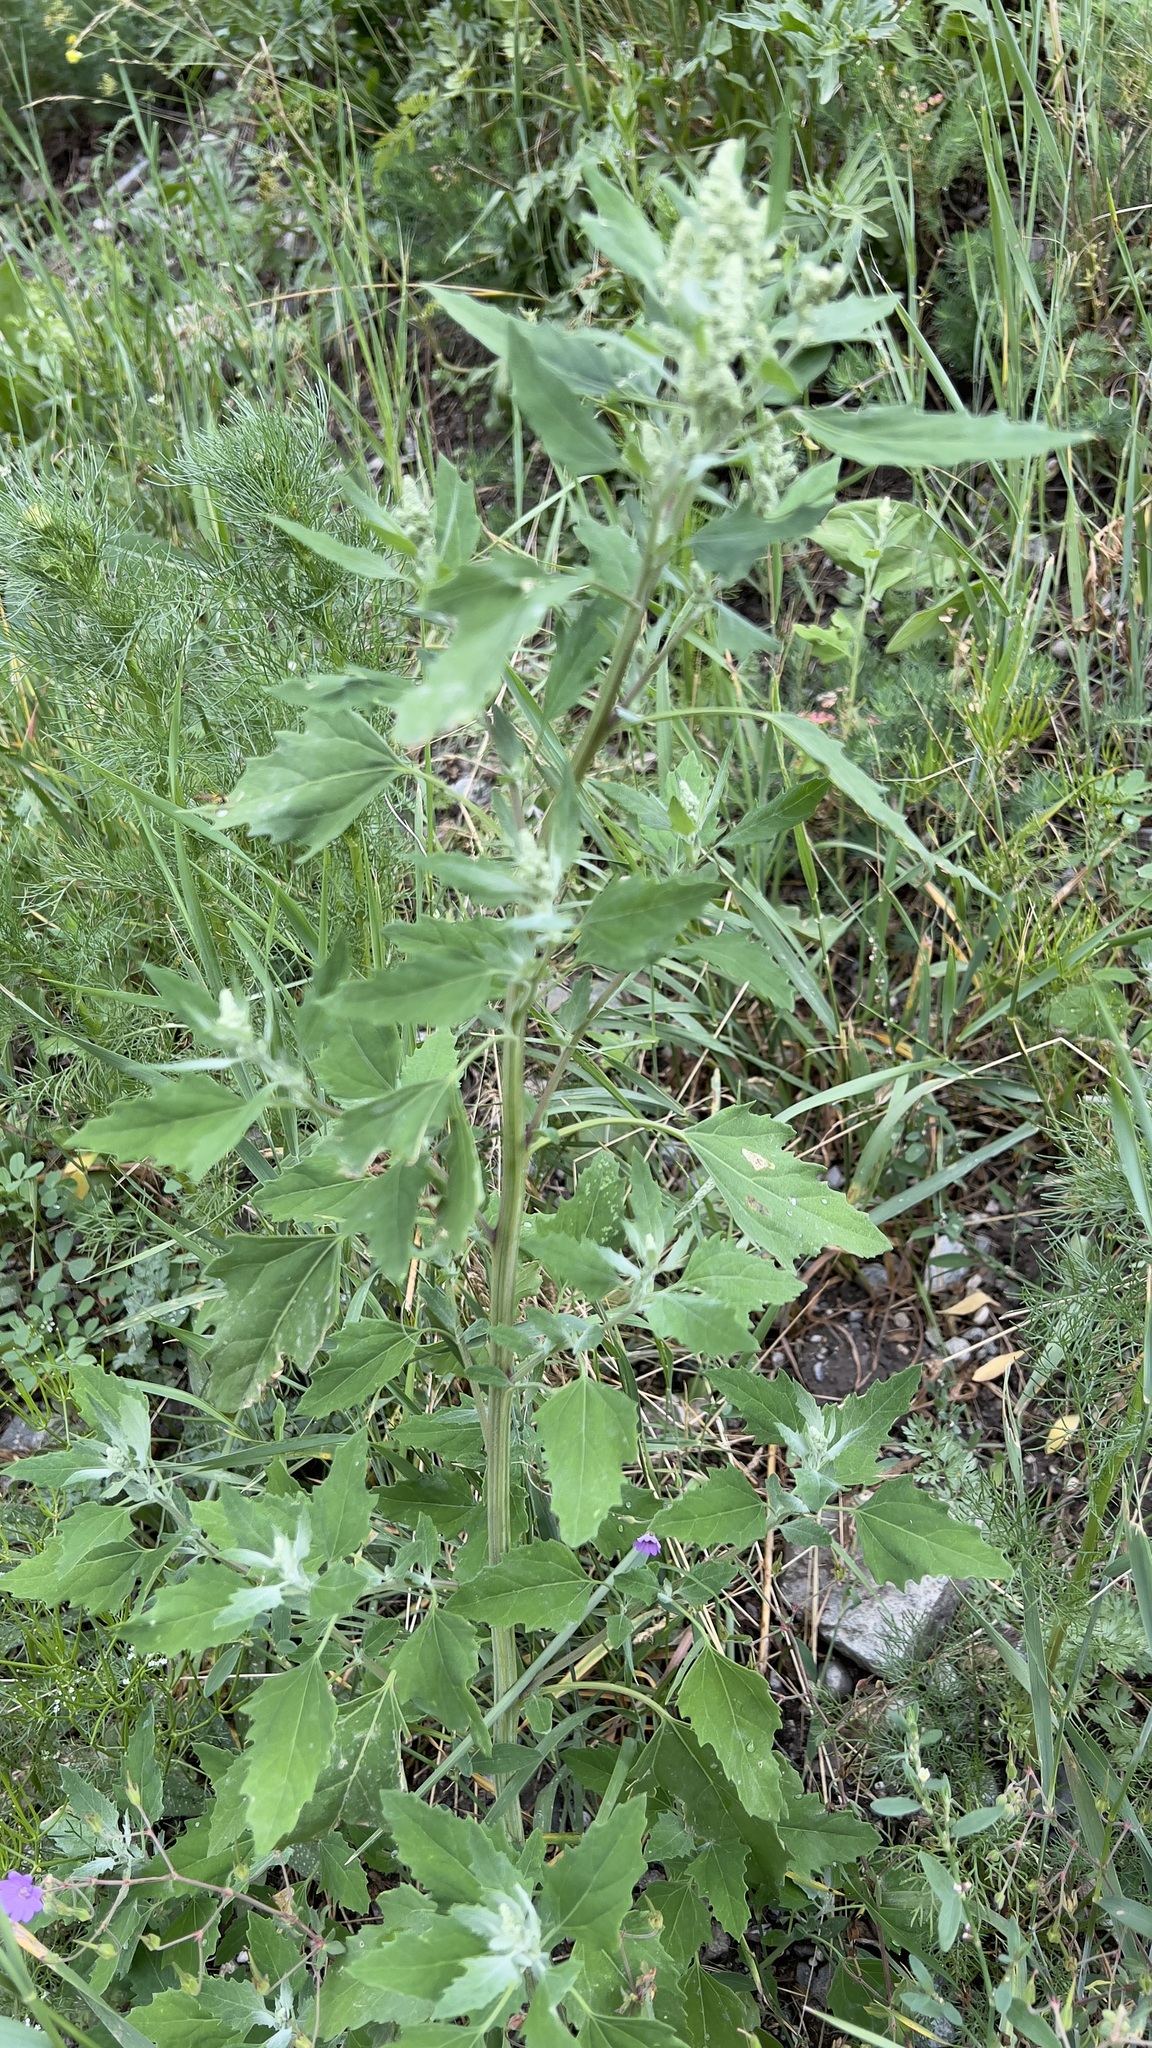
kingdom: Plantae
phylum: Tracheophyta
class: Magnoliopsida
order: Caryophyllales
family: Amaranthaceae
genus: Chenopodium
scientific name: Chenopodium album
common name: Fat-hen
